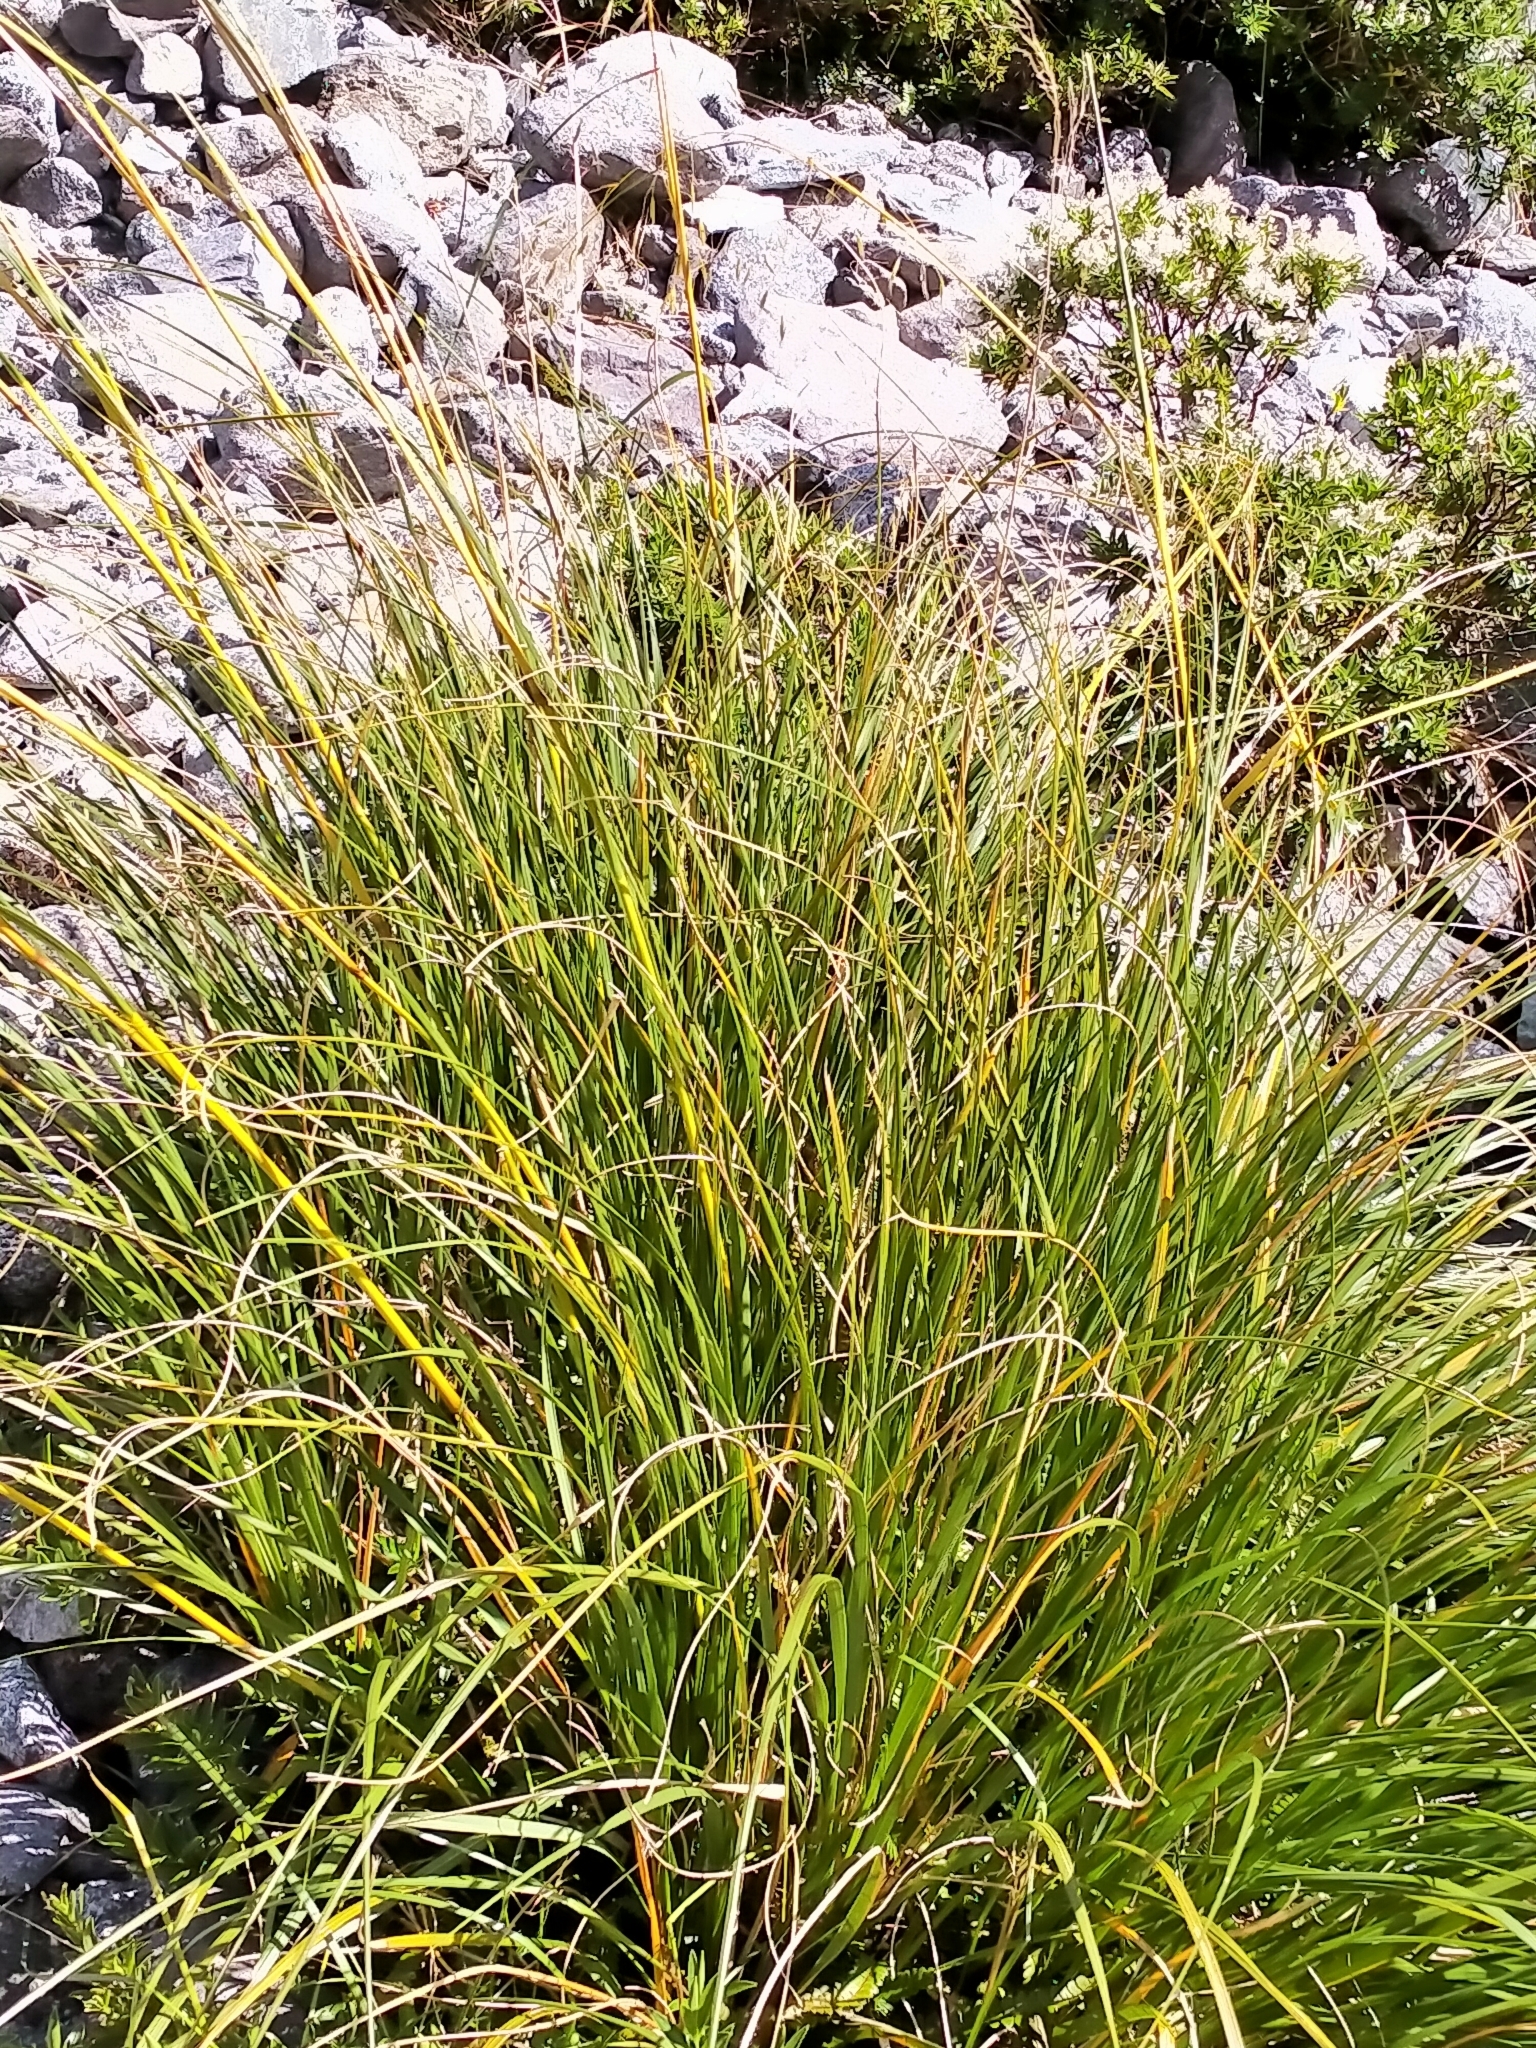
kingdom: Plantae
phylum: Tracheophyta
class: Liliopsida
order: Poales
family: Poaceae
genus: Chionochloa
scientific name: Chionochloa conspicua
